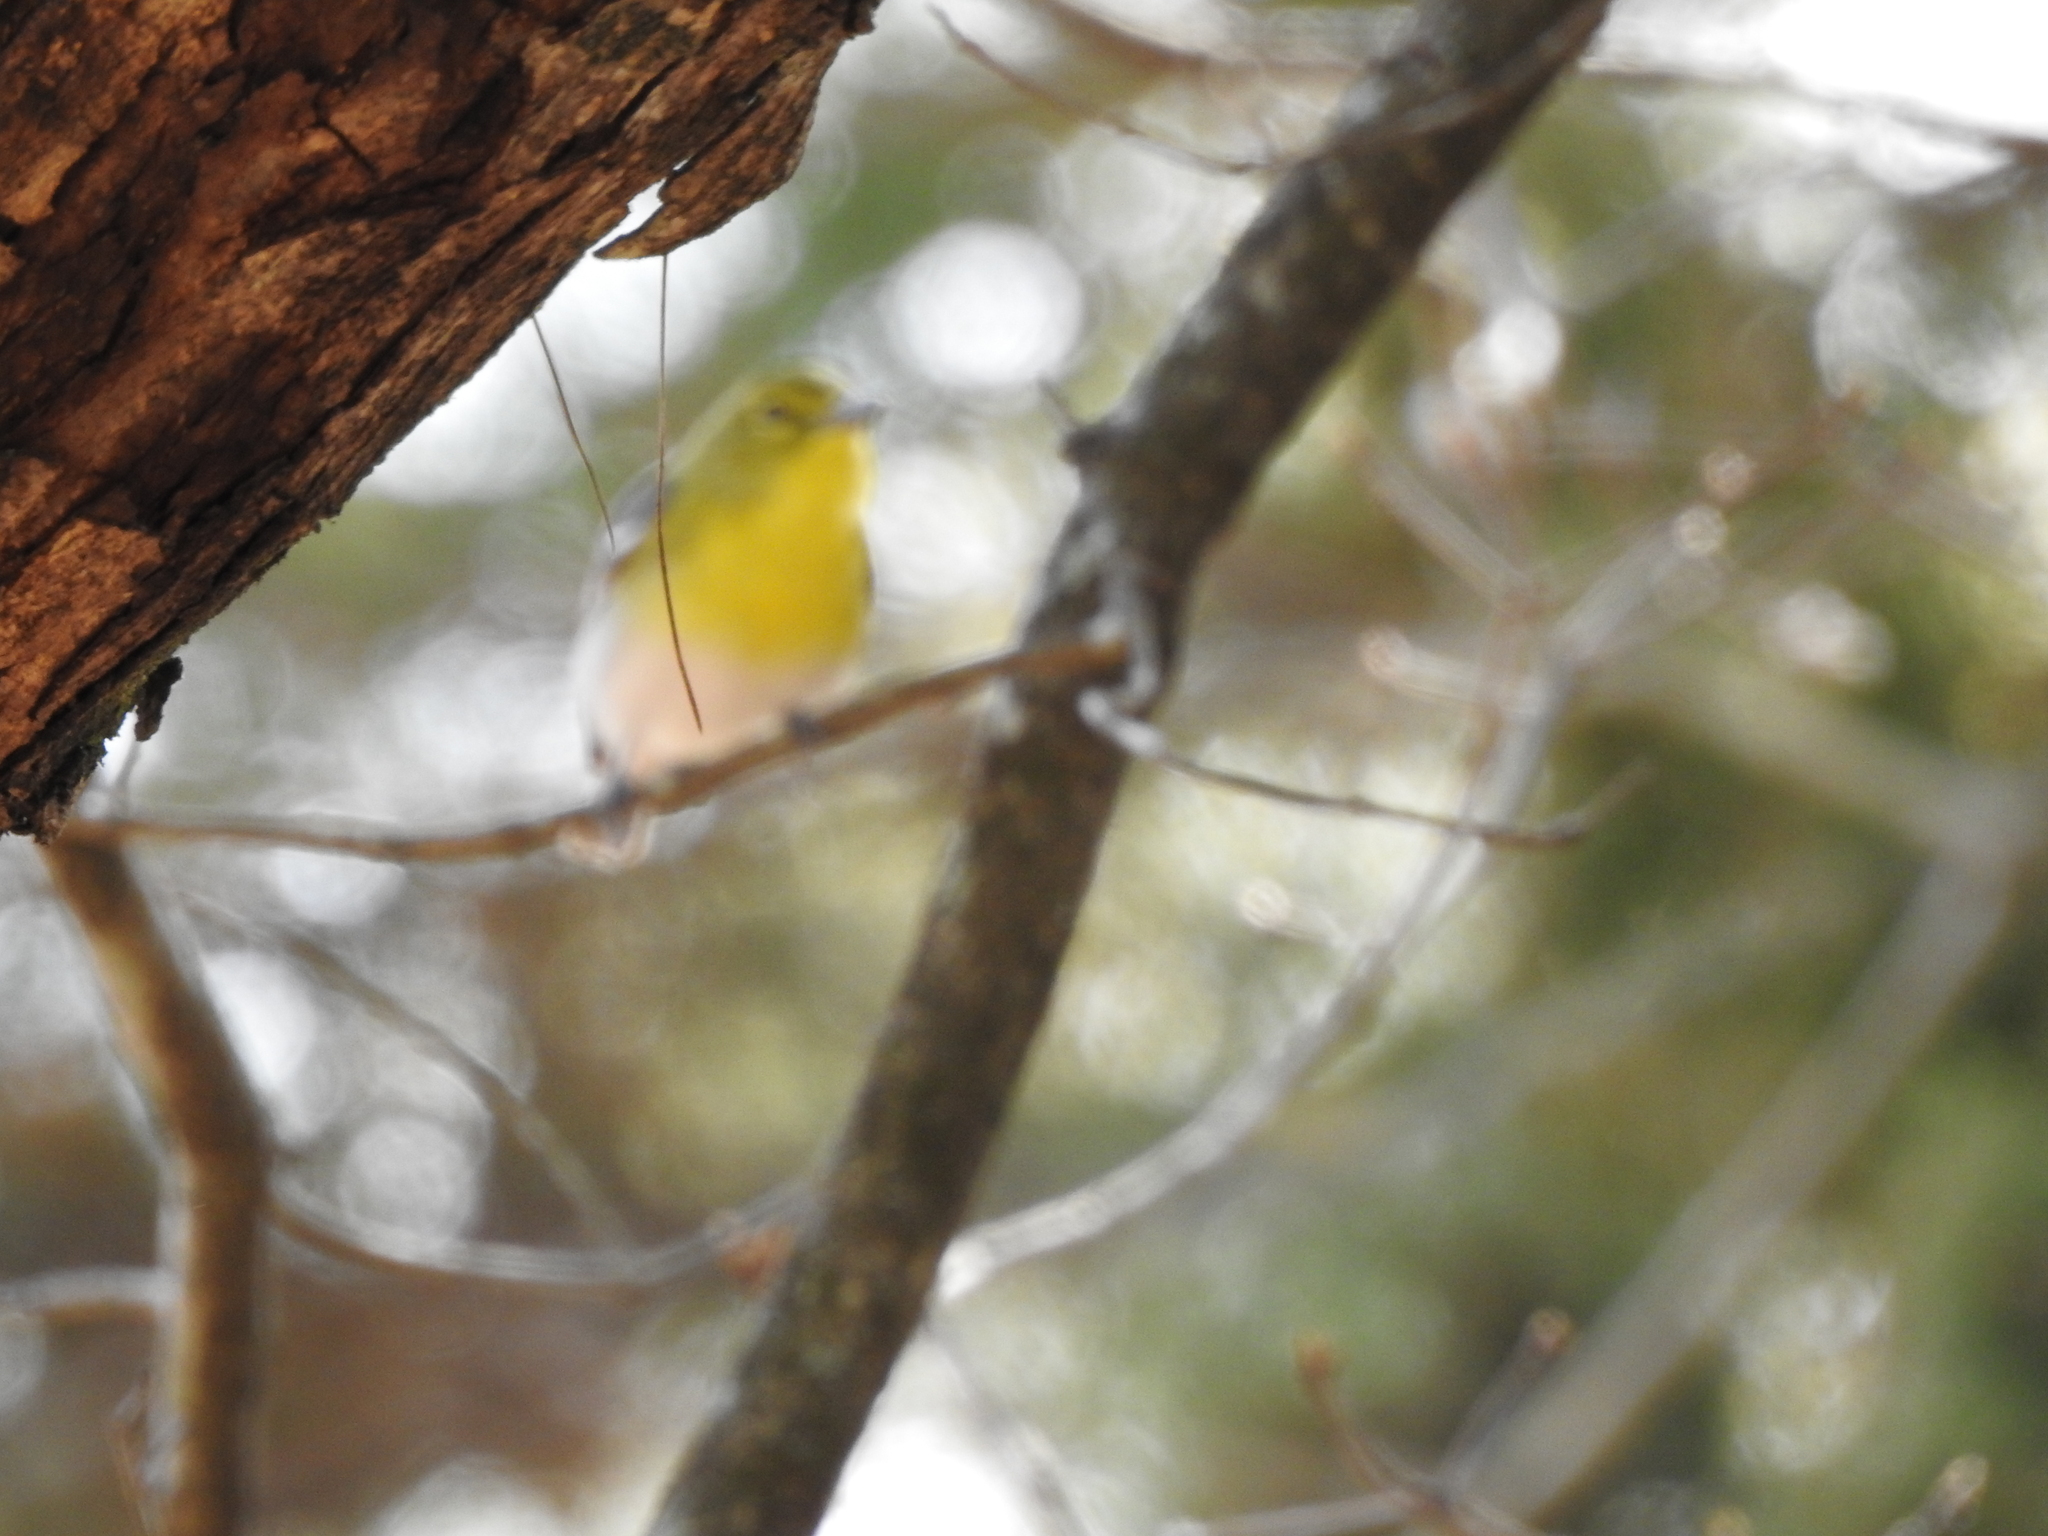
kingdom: Animalia
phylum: Chordata
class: Aves
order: Passeriformes
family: Vireonidae
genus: Vireo
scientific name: Vireo flavifrons
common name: Yellow-throated vireo
